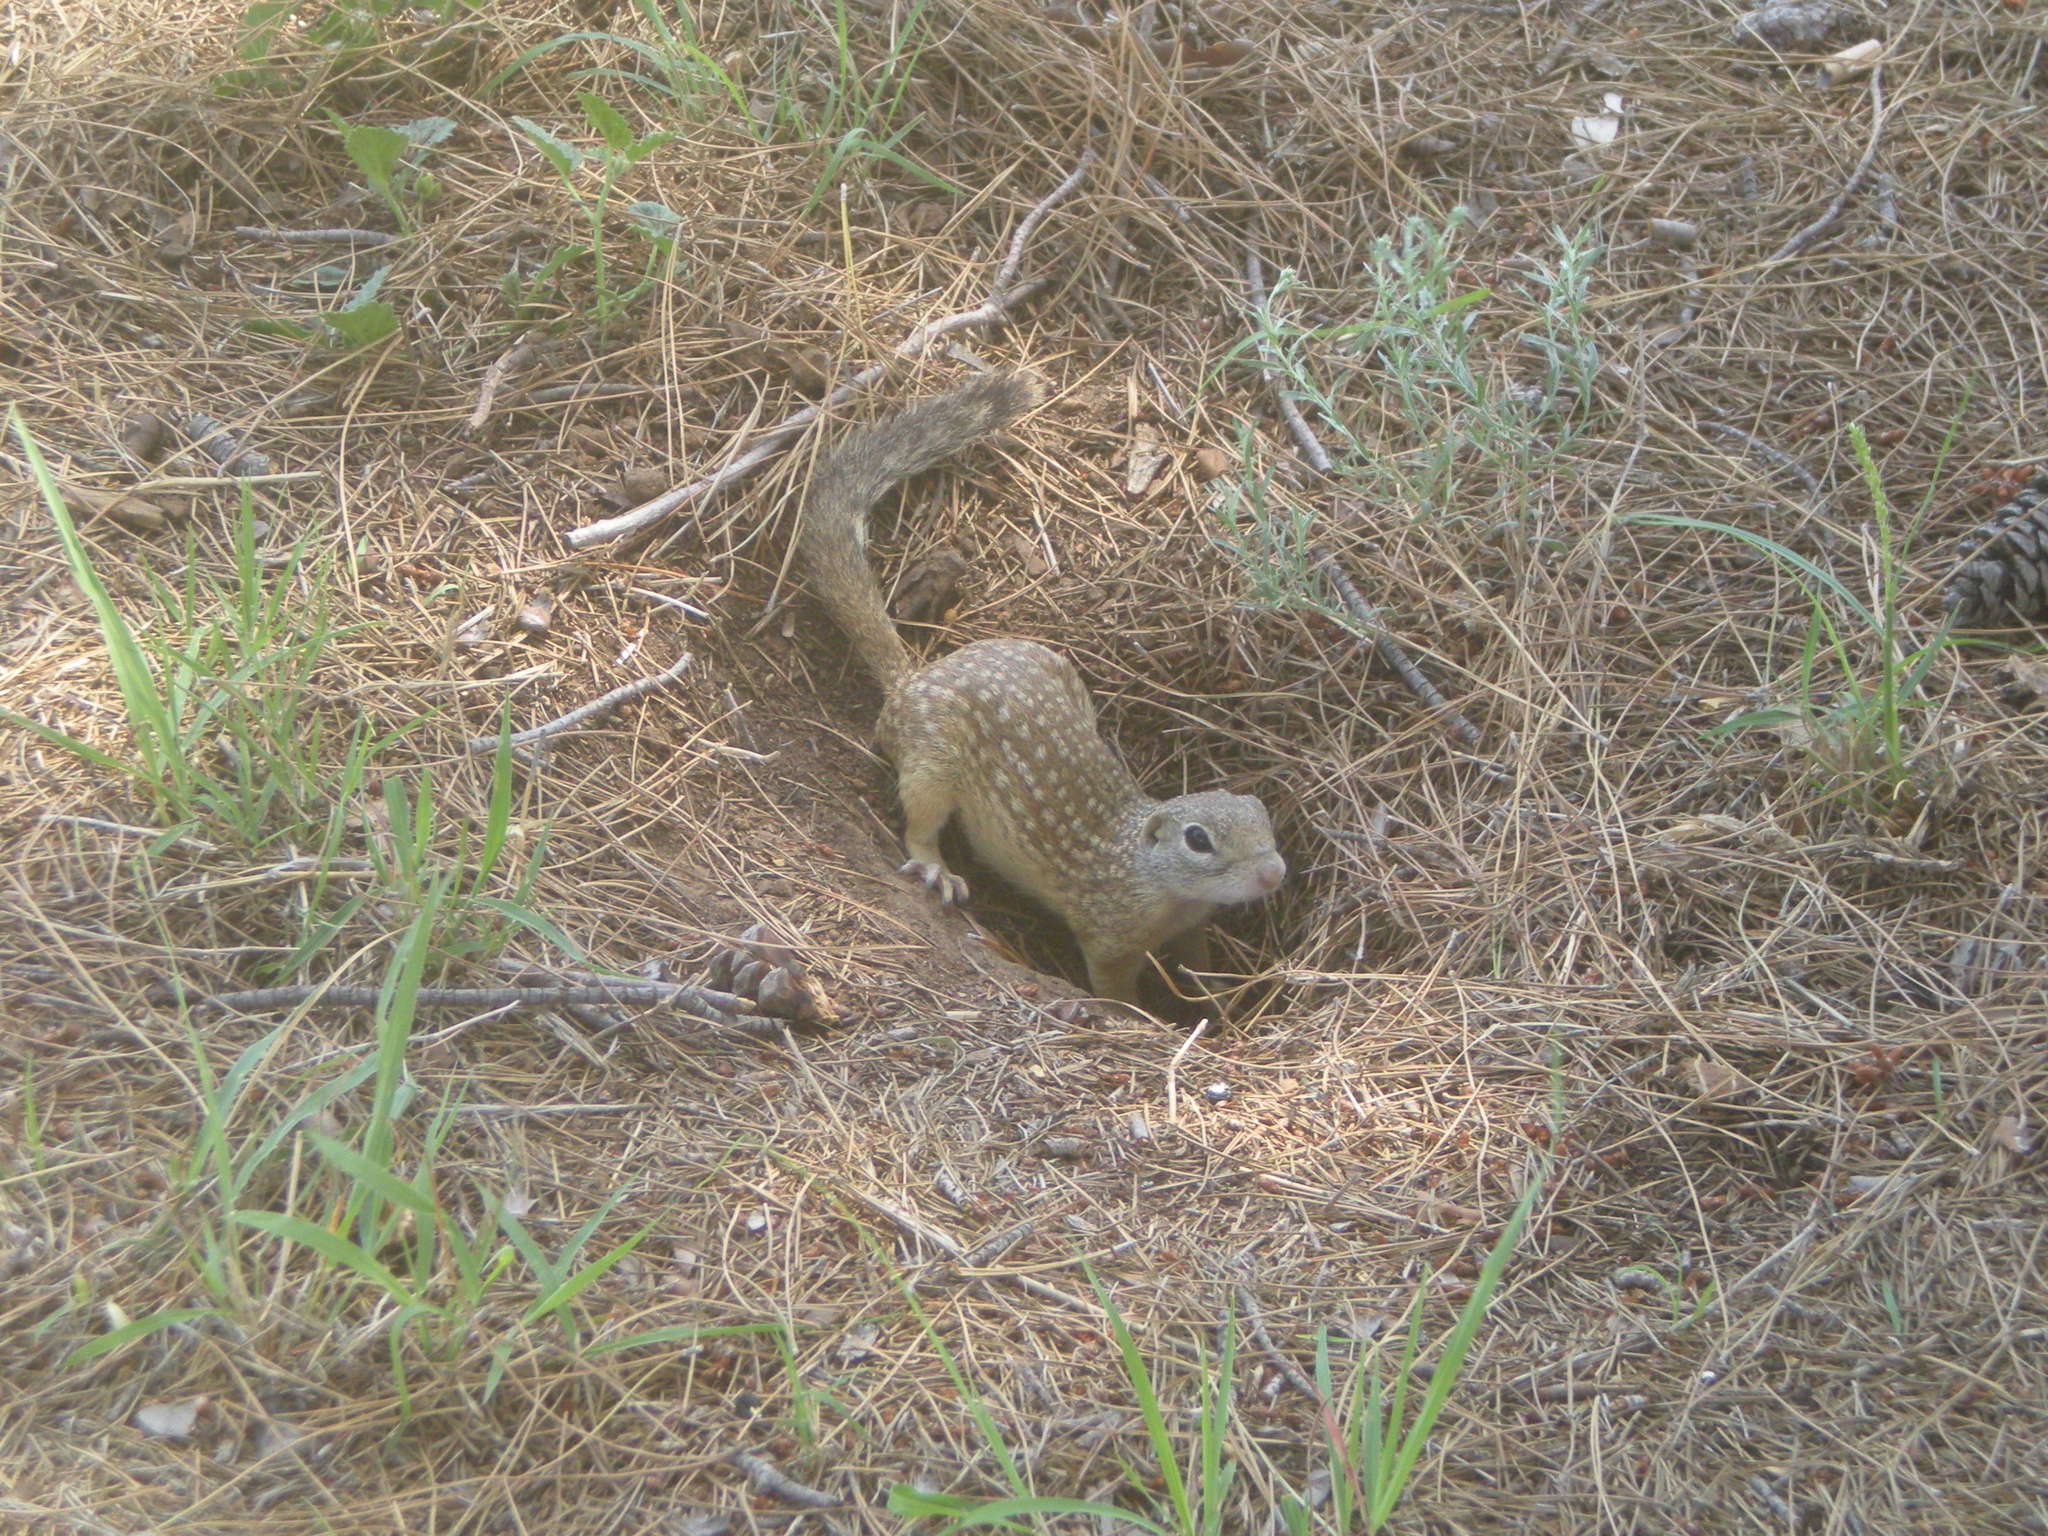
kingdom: Animalia
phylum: Chordata
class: Mammalia
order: Rodentia
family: Sciuridae
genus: Ictidomys
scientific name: Ictidomys parvidens
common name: Rio grande ground squirrel
